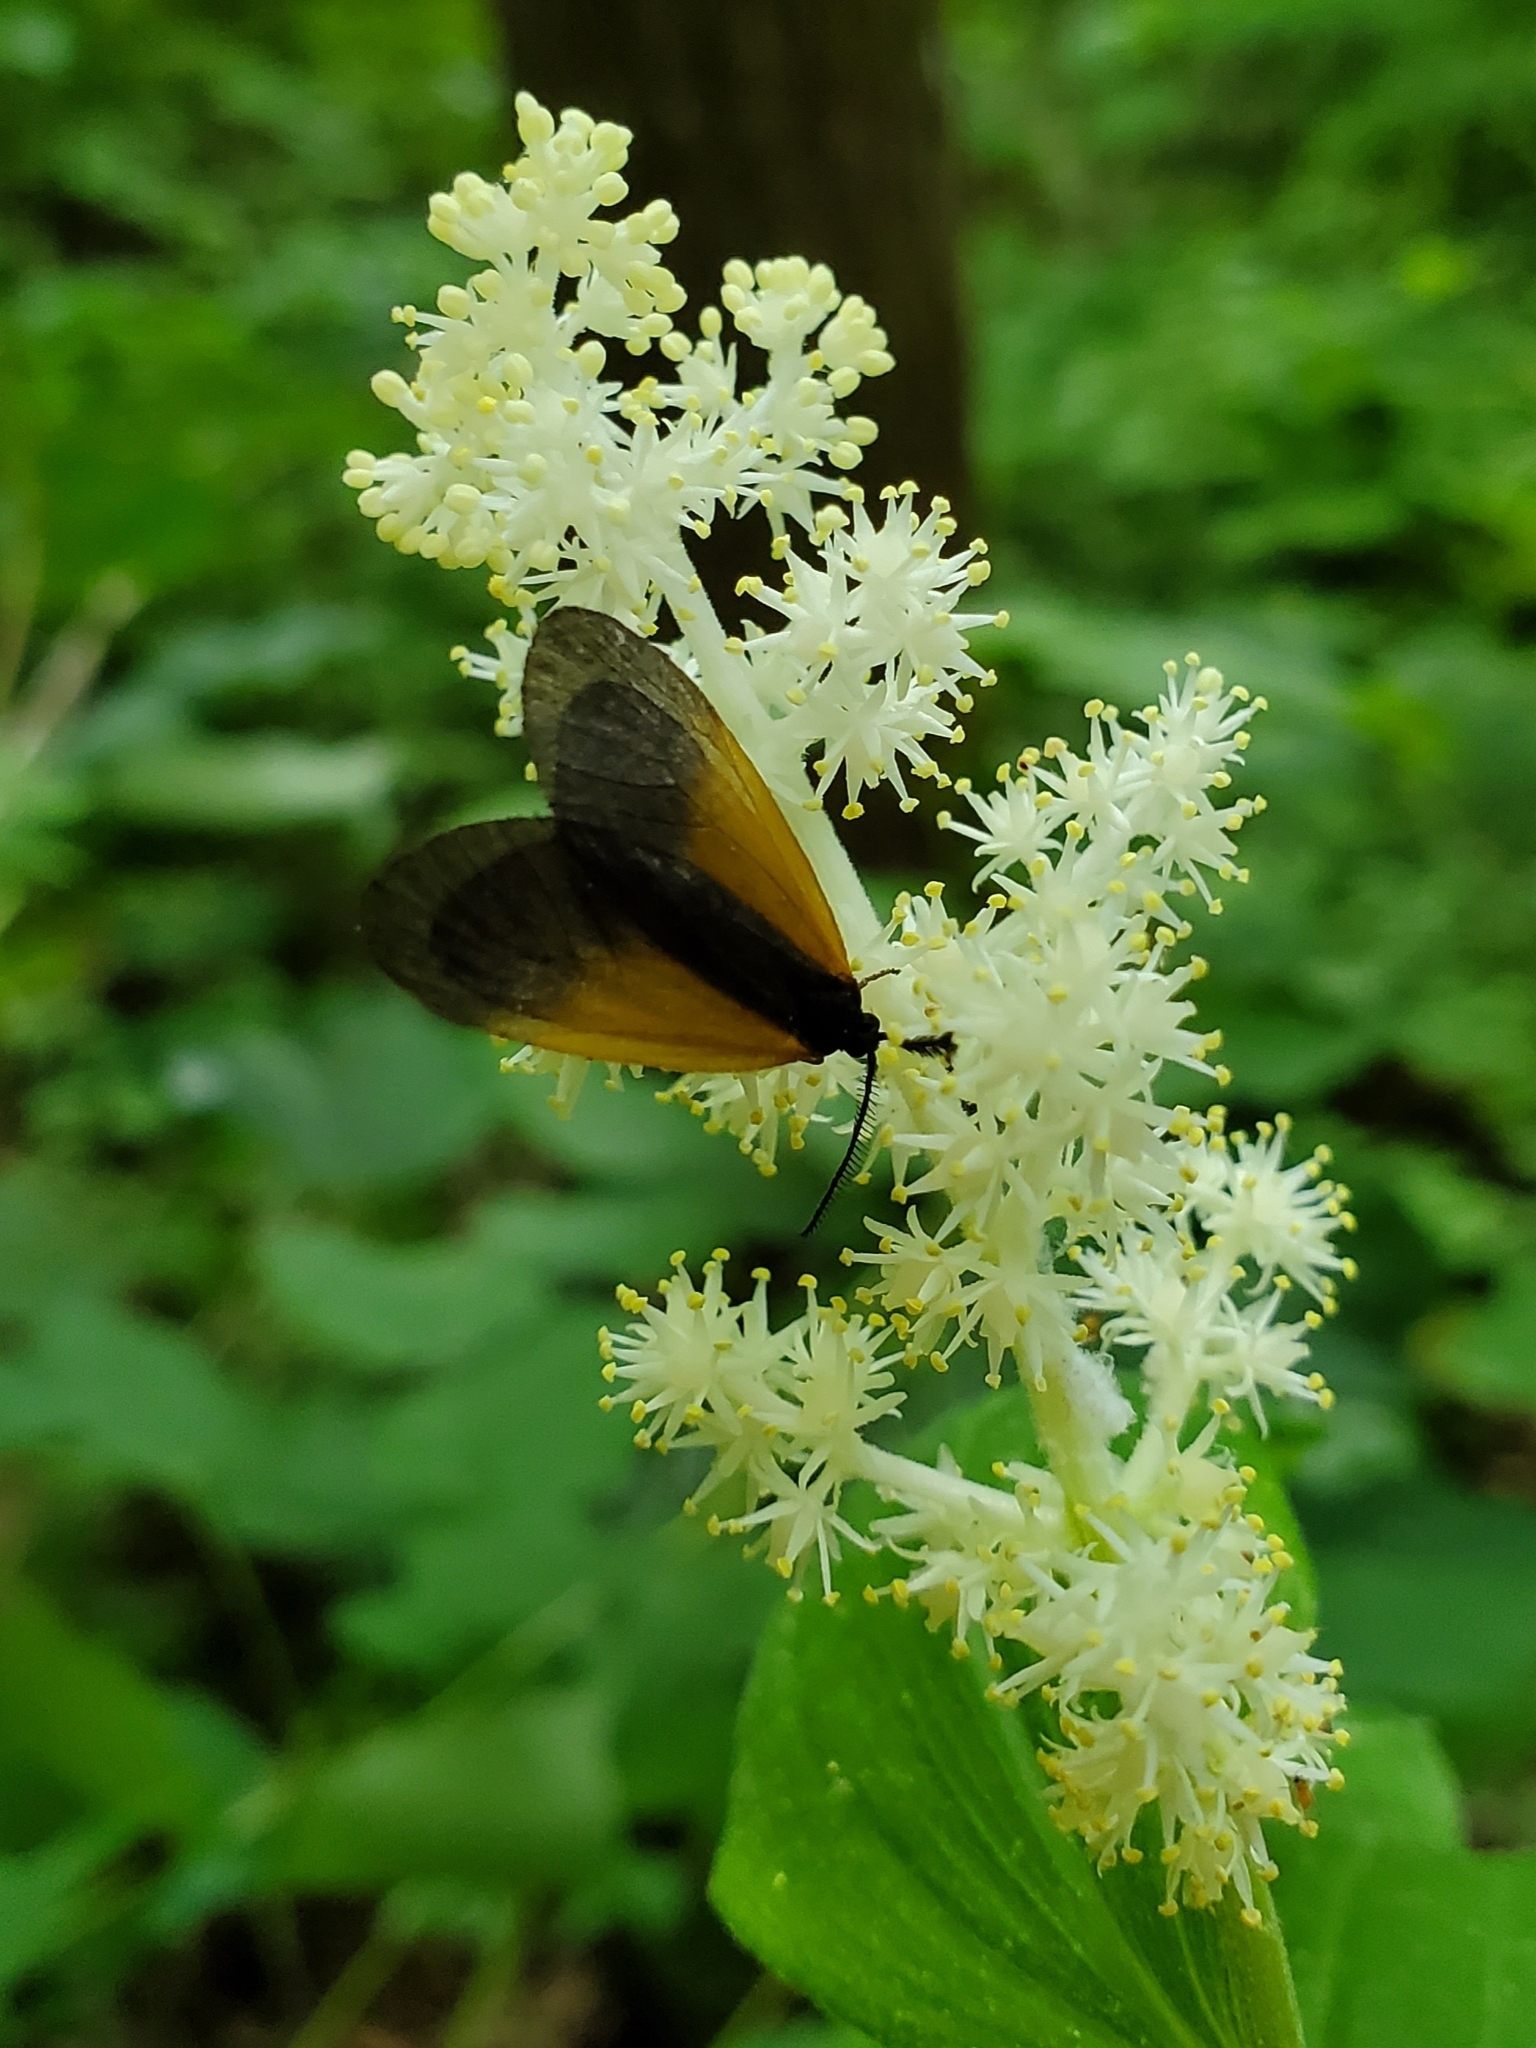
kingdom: Animalia
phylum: Arthropoda
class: Insecta
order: Lepidoptera
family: Zygaenidae
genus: Malthaca
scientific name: Malthaca dimidiata
